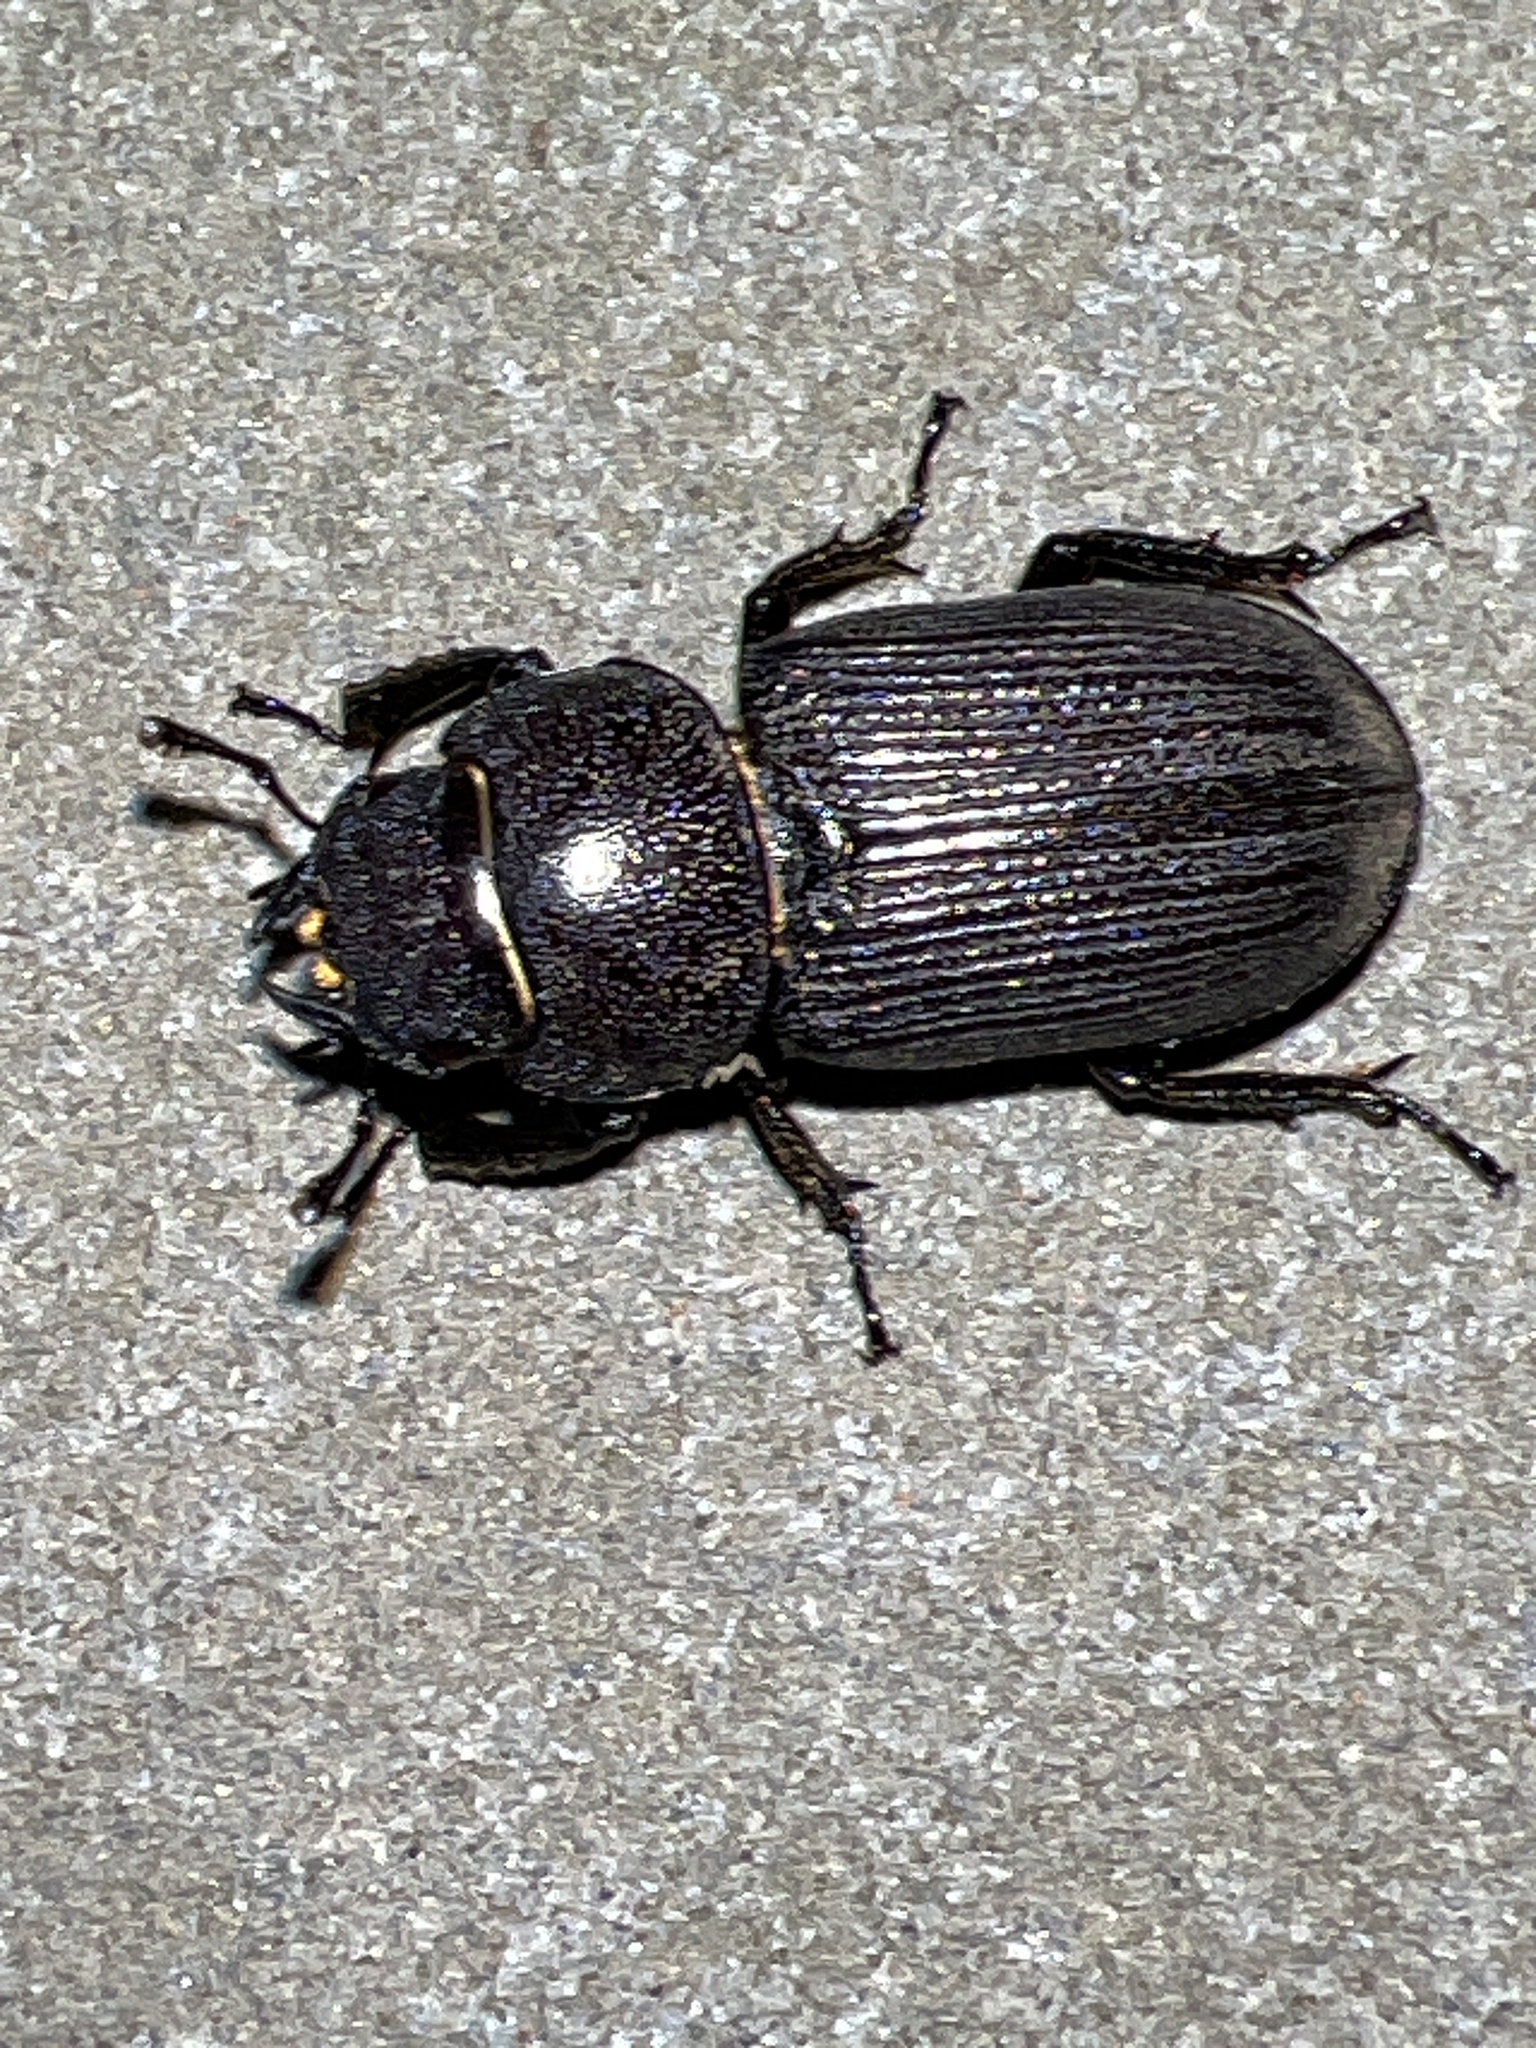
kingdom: Animalia
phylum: Arthropoda
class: Insecta
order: Coleoptera
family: Lucanidae
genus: Dorcus
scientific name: Dorcus parallelus
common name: Antelope beetle
